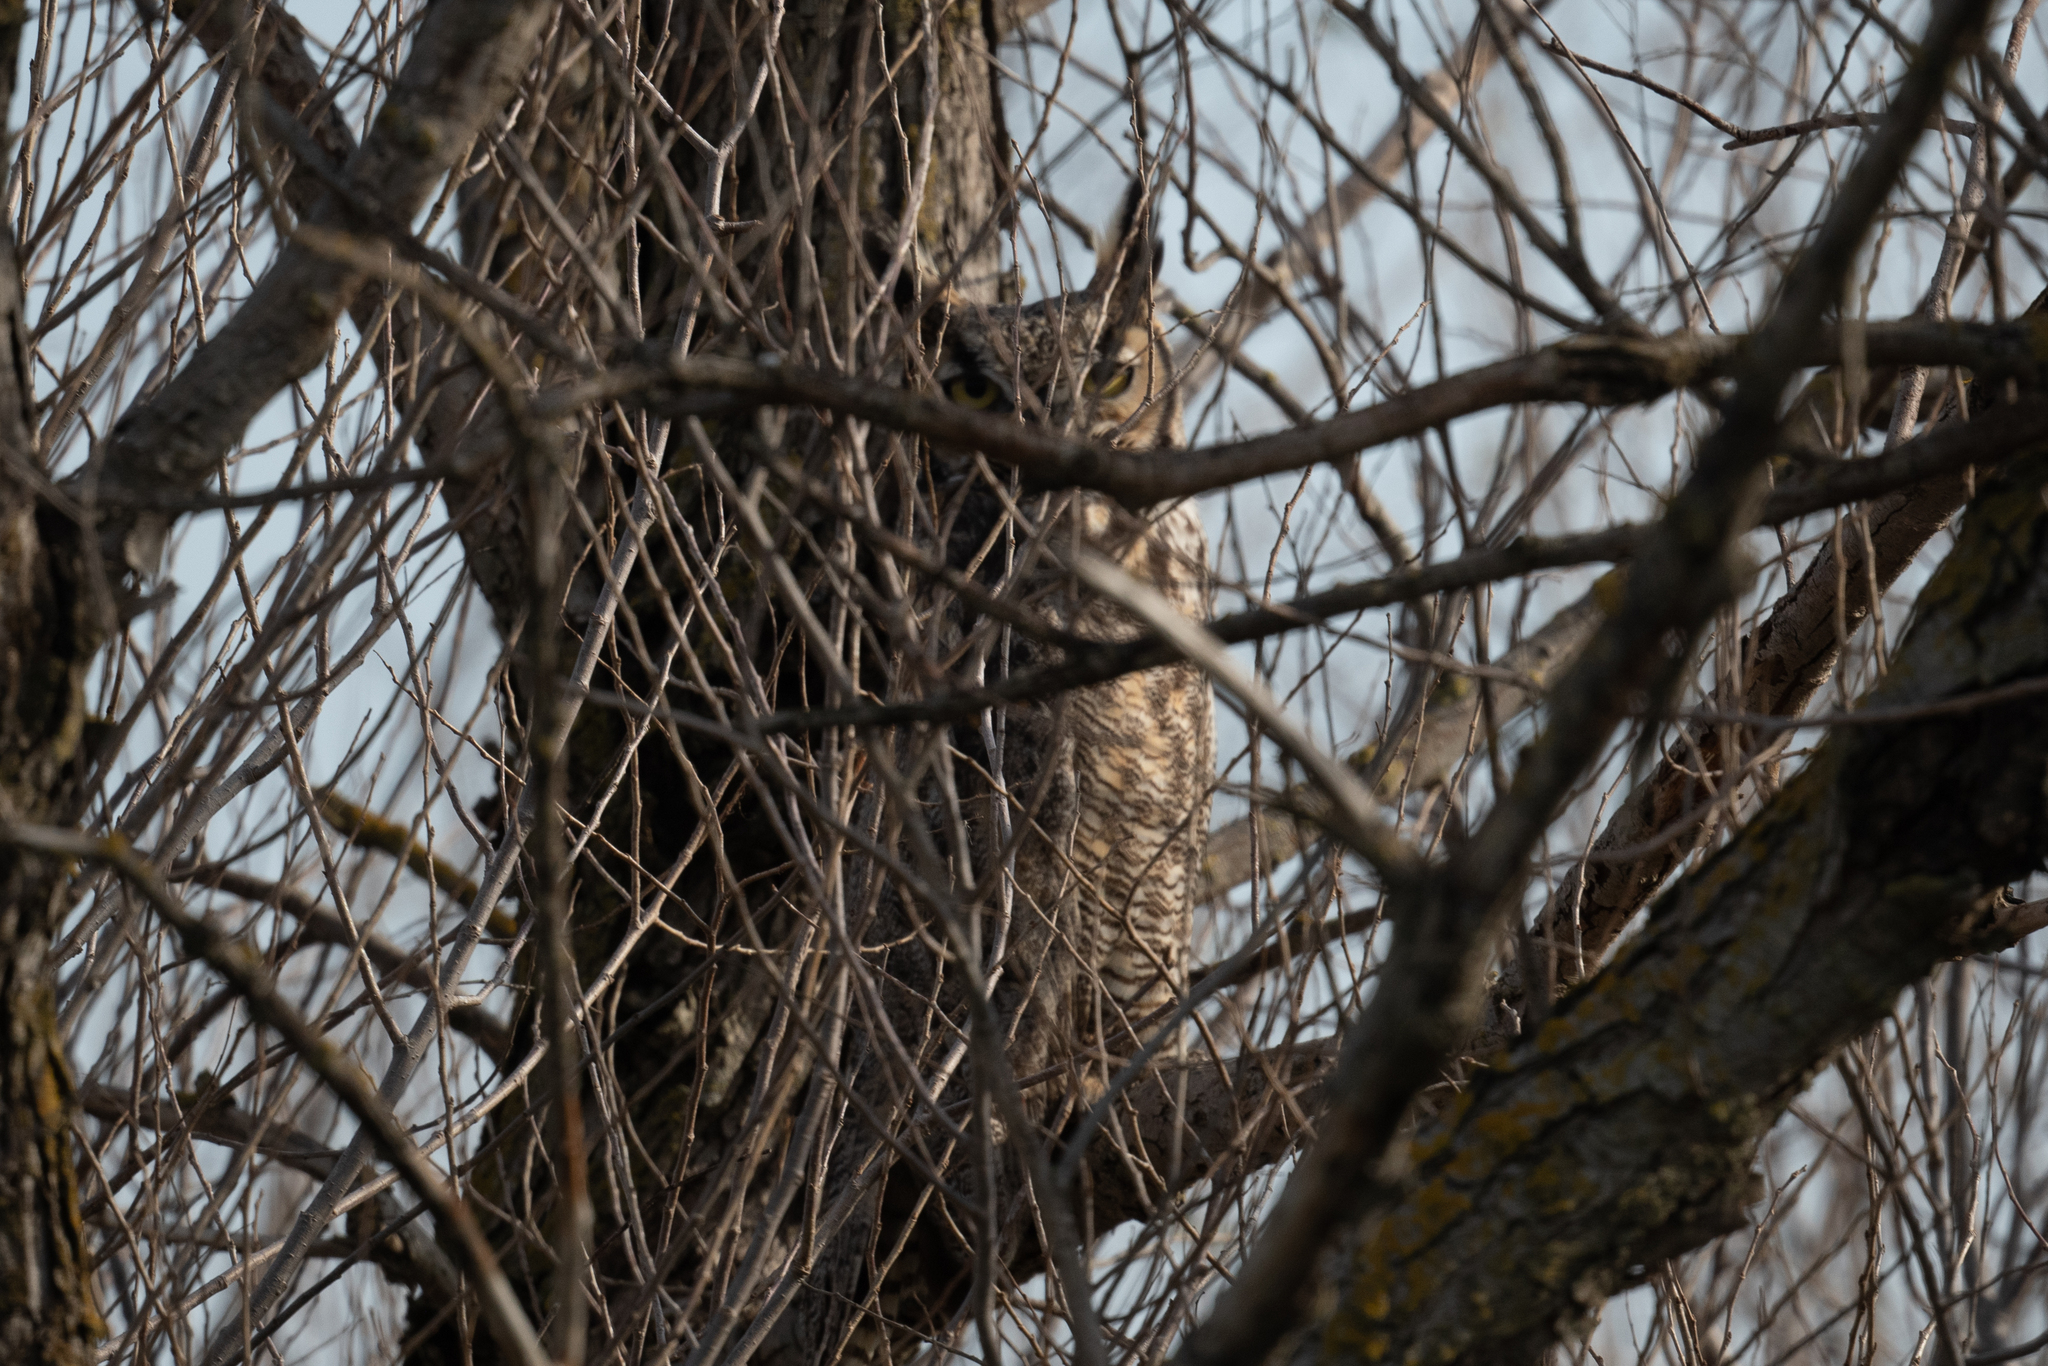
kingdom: Animalia
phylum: Chordata
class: Aves
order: Strigiformes
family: Strigidae
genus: Bubo
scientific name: Bubo virginianus
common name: Great horned owl
